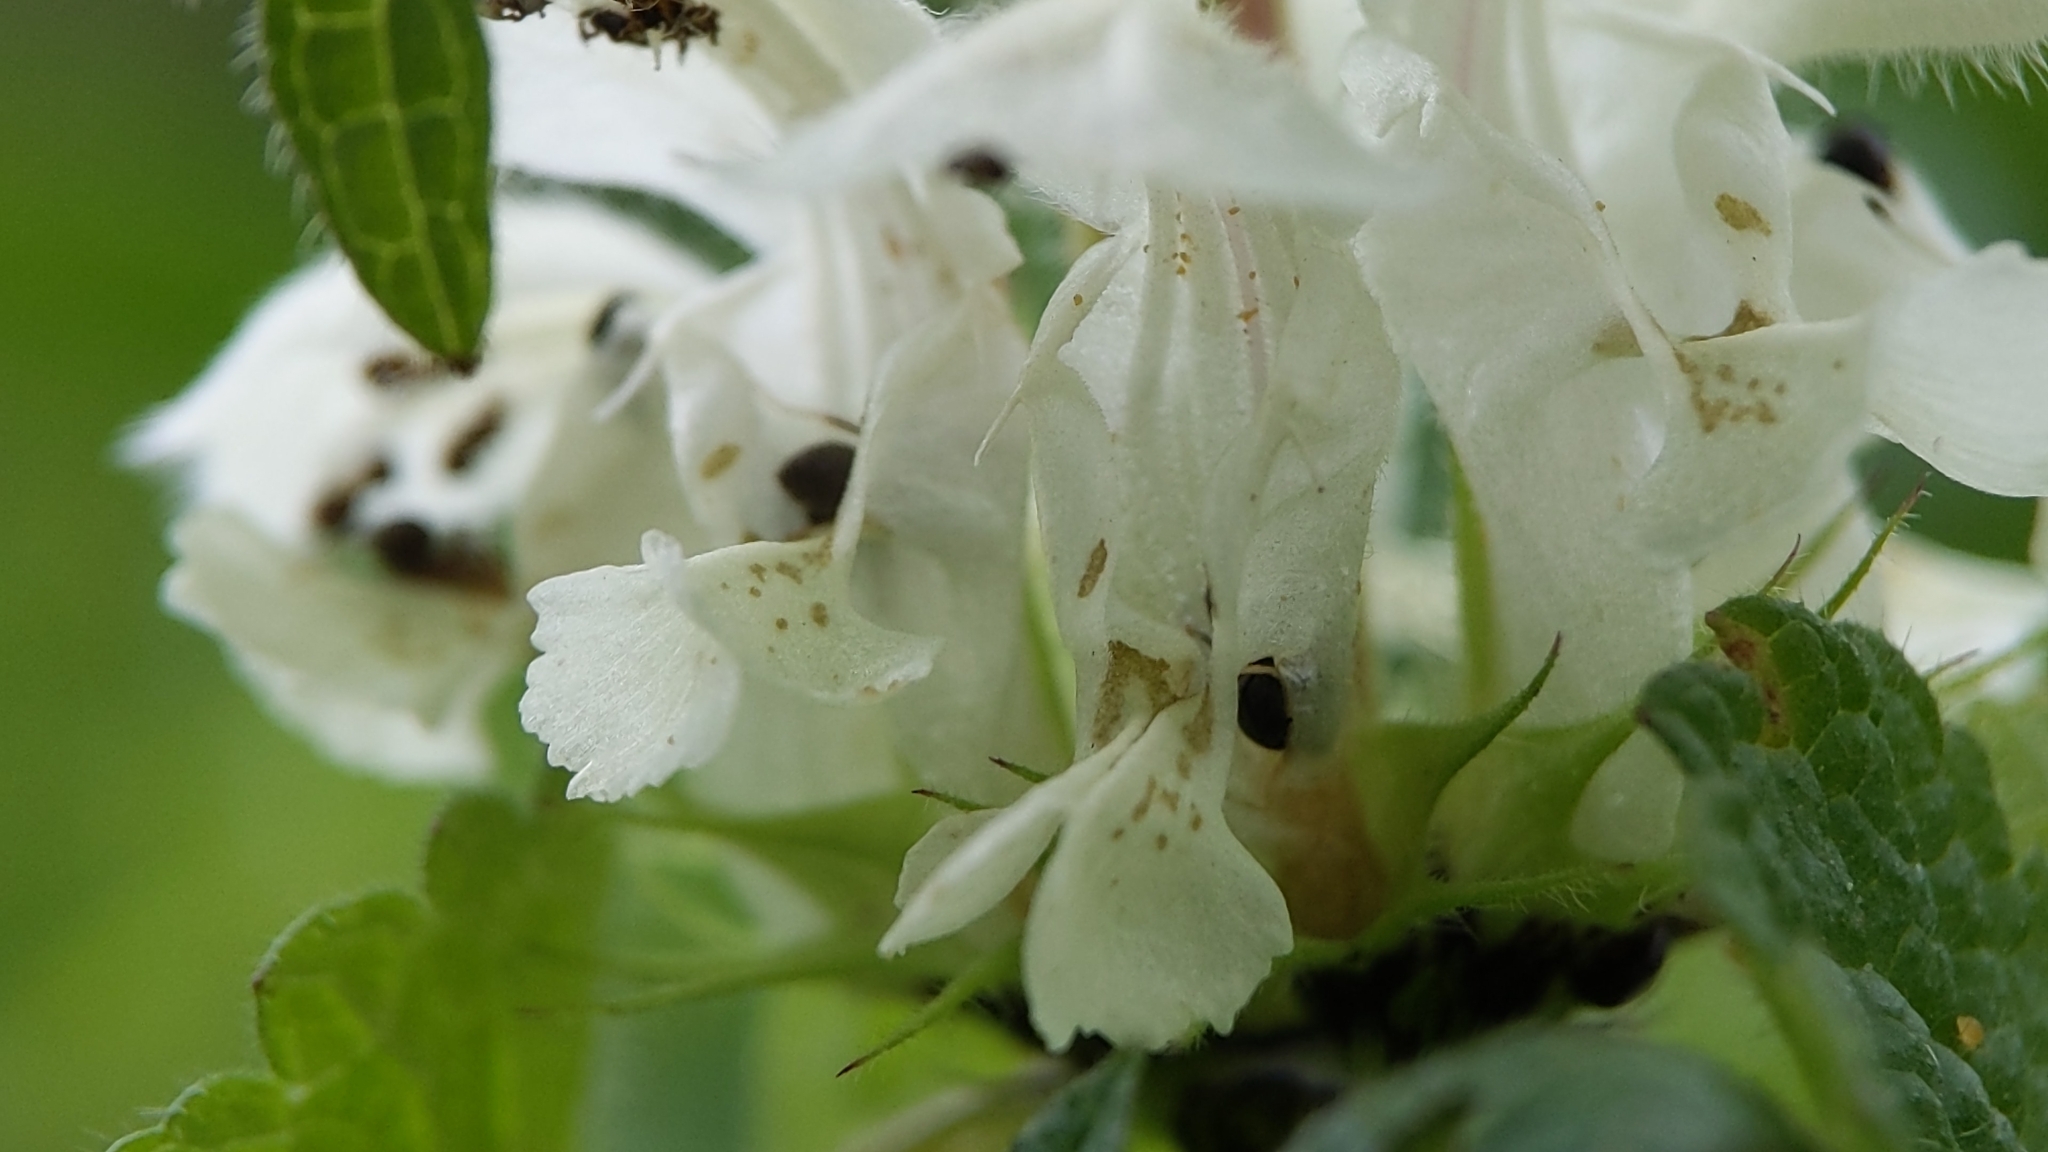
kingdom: Plantae
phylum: Tracheophyta
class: Magnoliopsida
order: Lamiales
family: Lamiaceae
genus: Lamium
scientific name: Lamium album
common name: White dead-nettle
